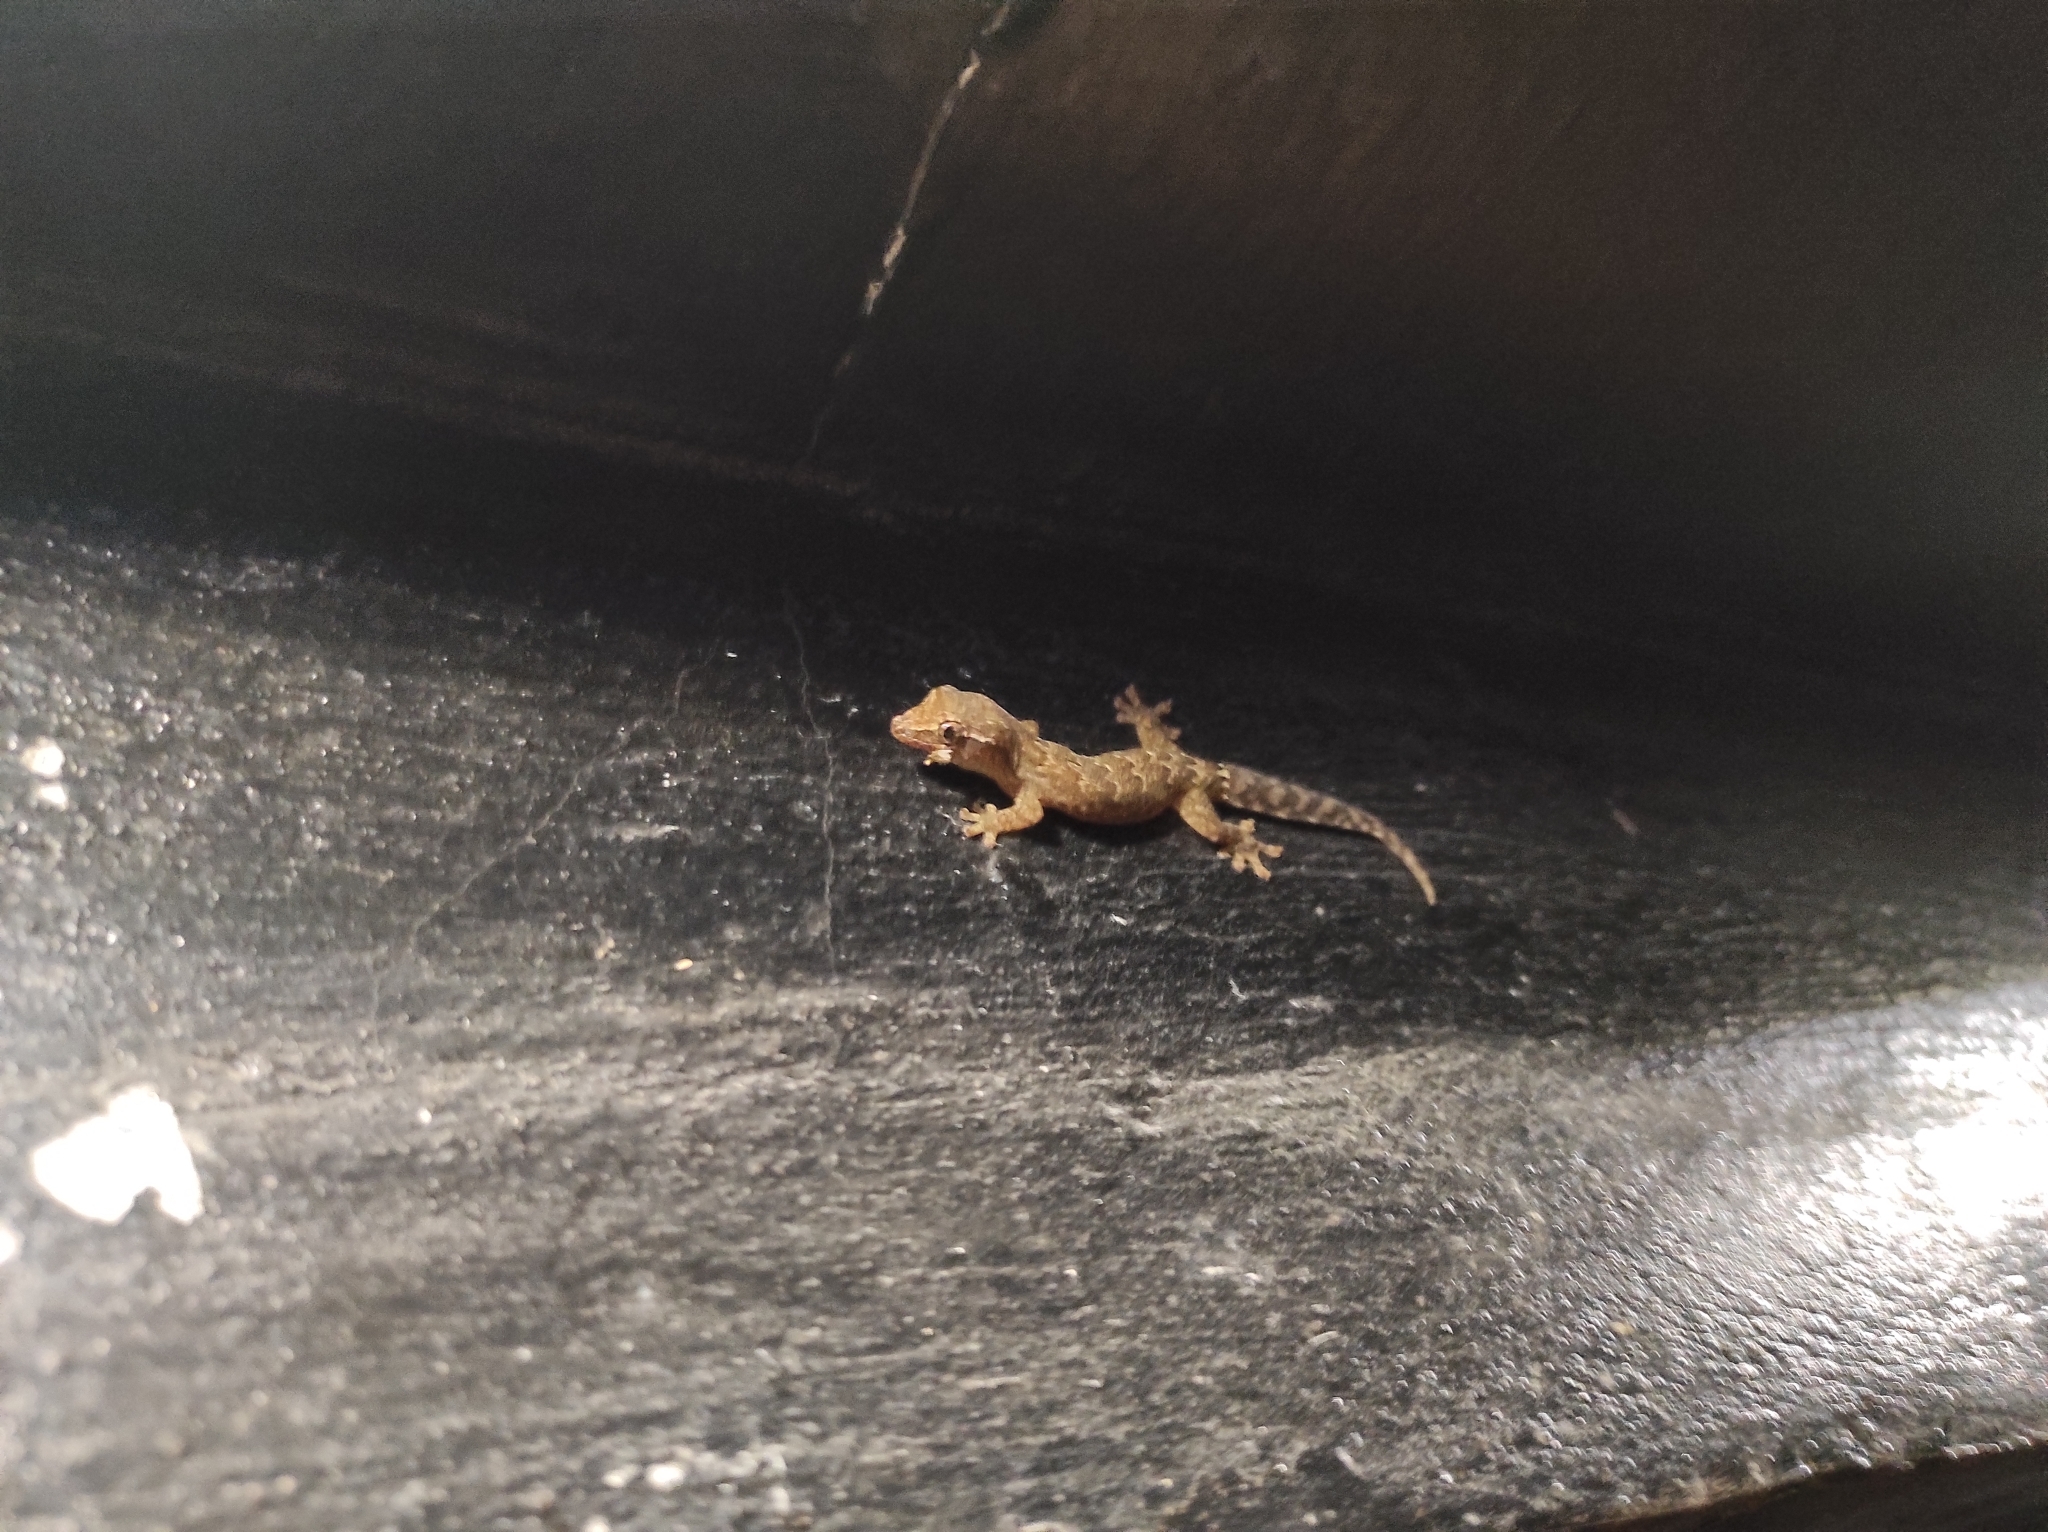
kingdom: Animalia
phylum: Chordata
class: Squamata
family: Gekkonidae
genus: Lepidodactylus
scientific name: Lepidodactylus lugubris
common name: Mourning gecko
